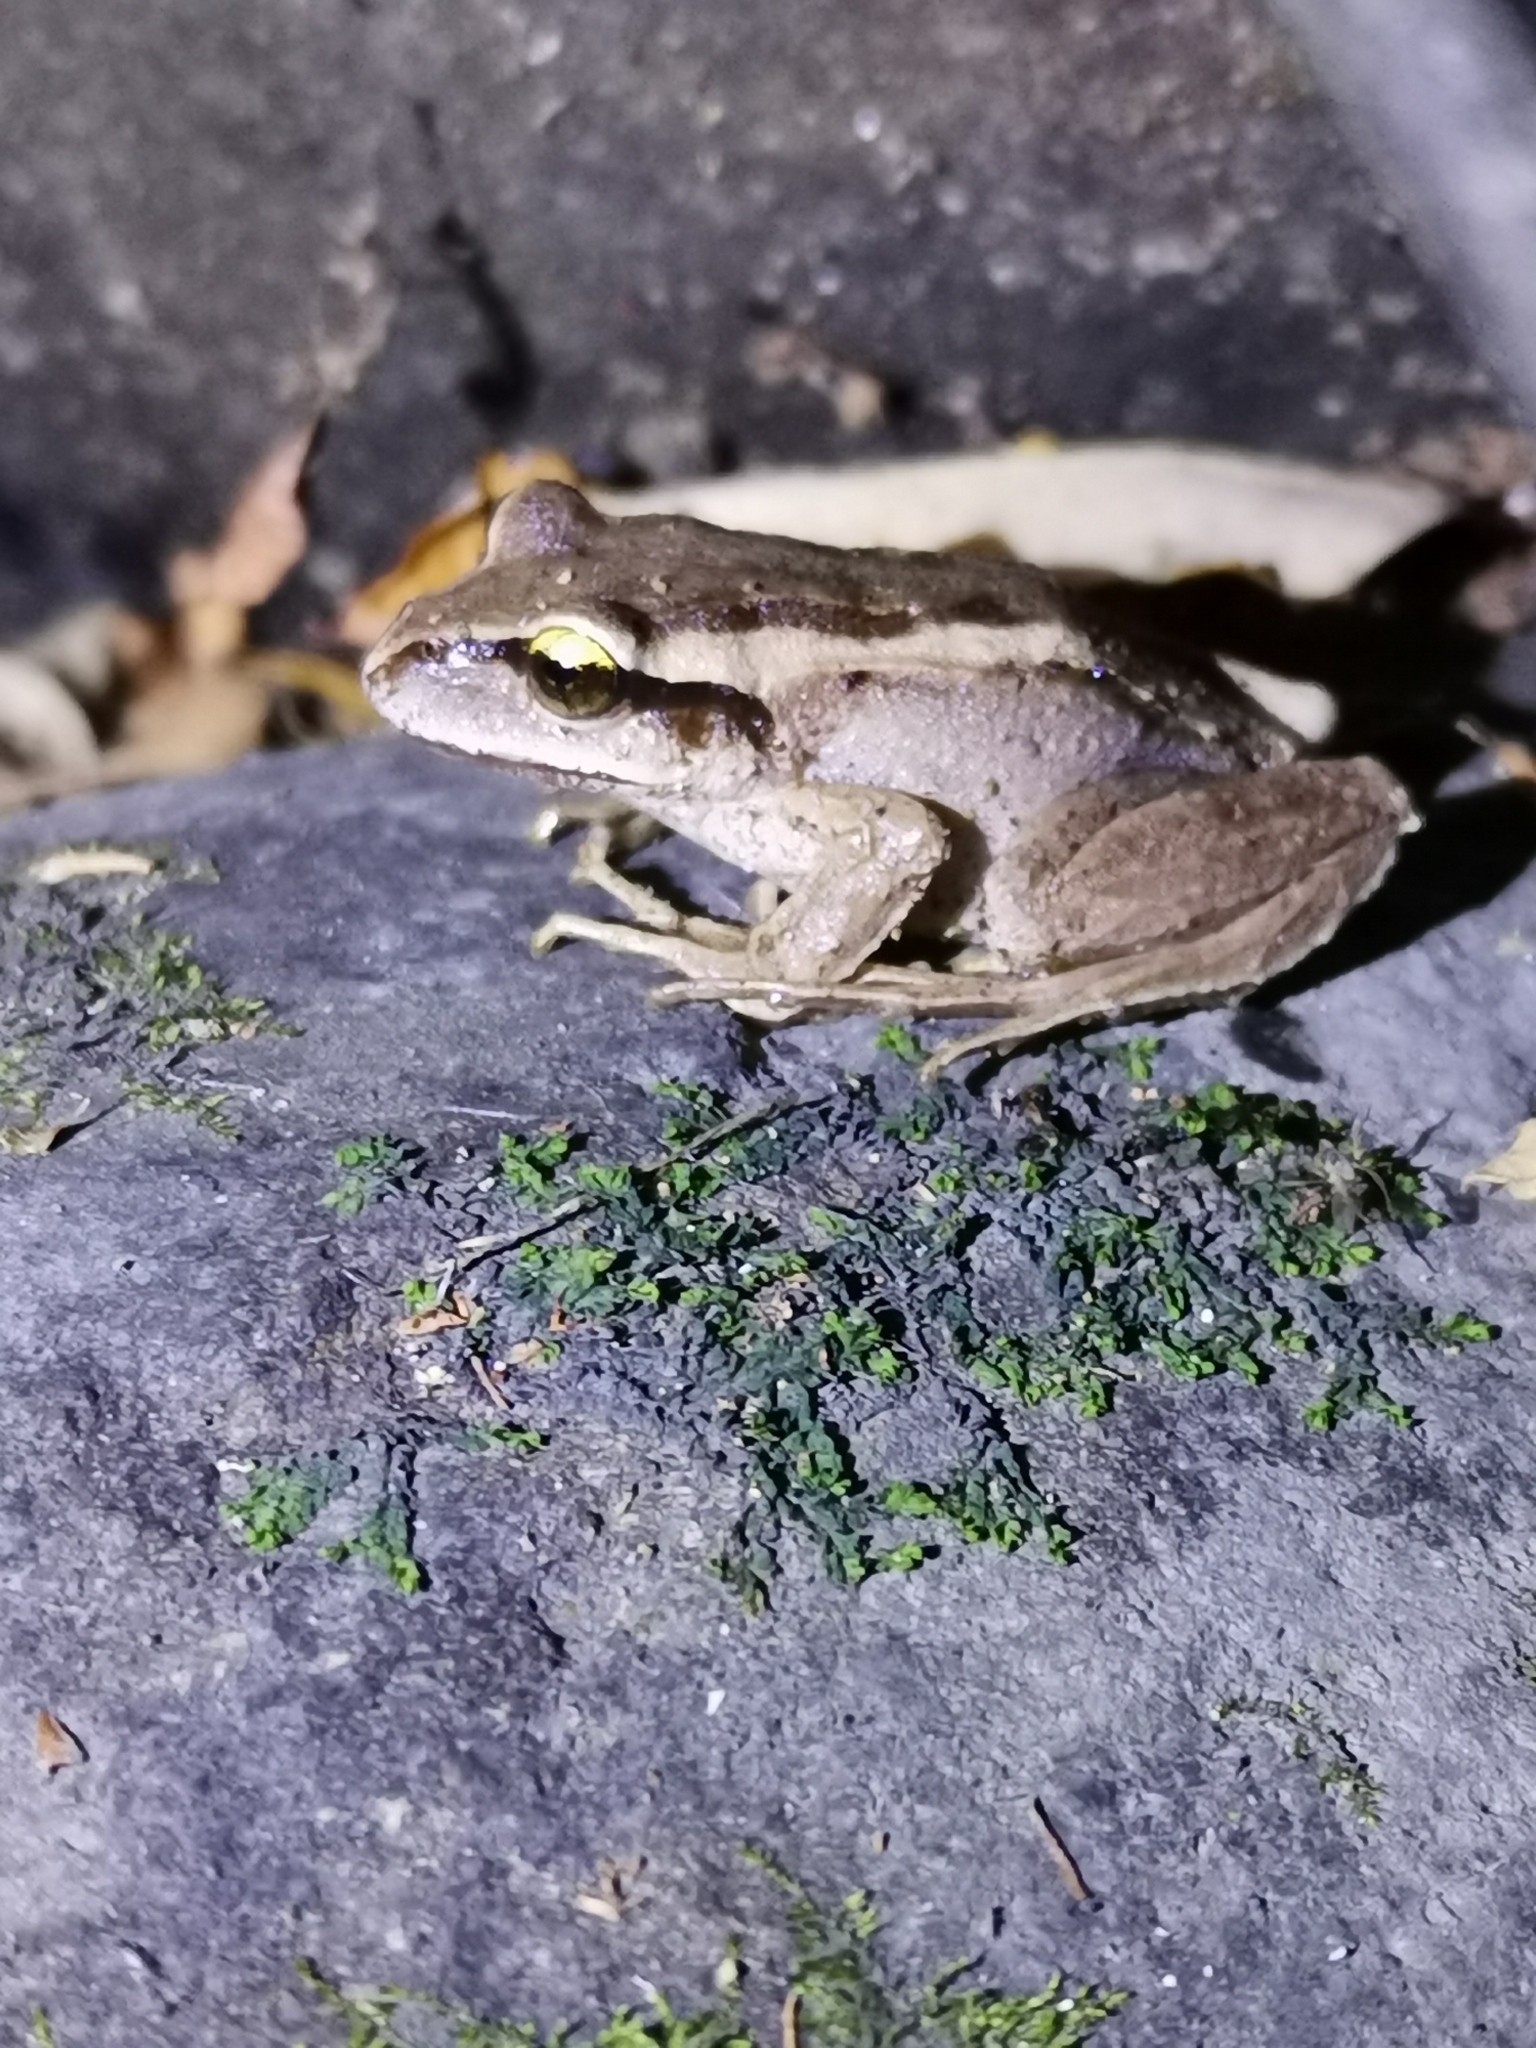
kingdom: Animalia
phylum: Chordata
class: Amphibia
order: Anura
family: Batrachylidae
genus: Batrachyla
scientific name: Batrachyla taeniata
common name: Banded wood frog
